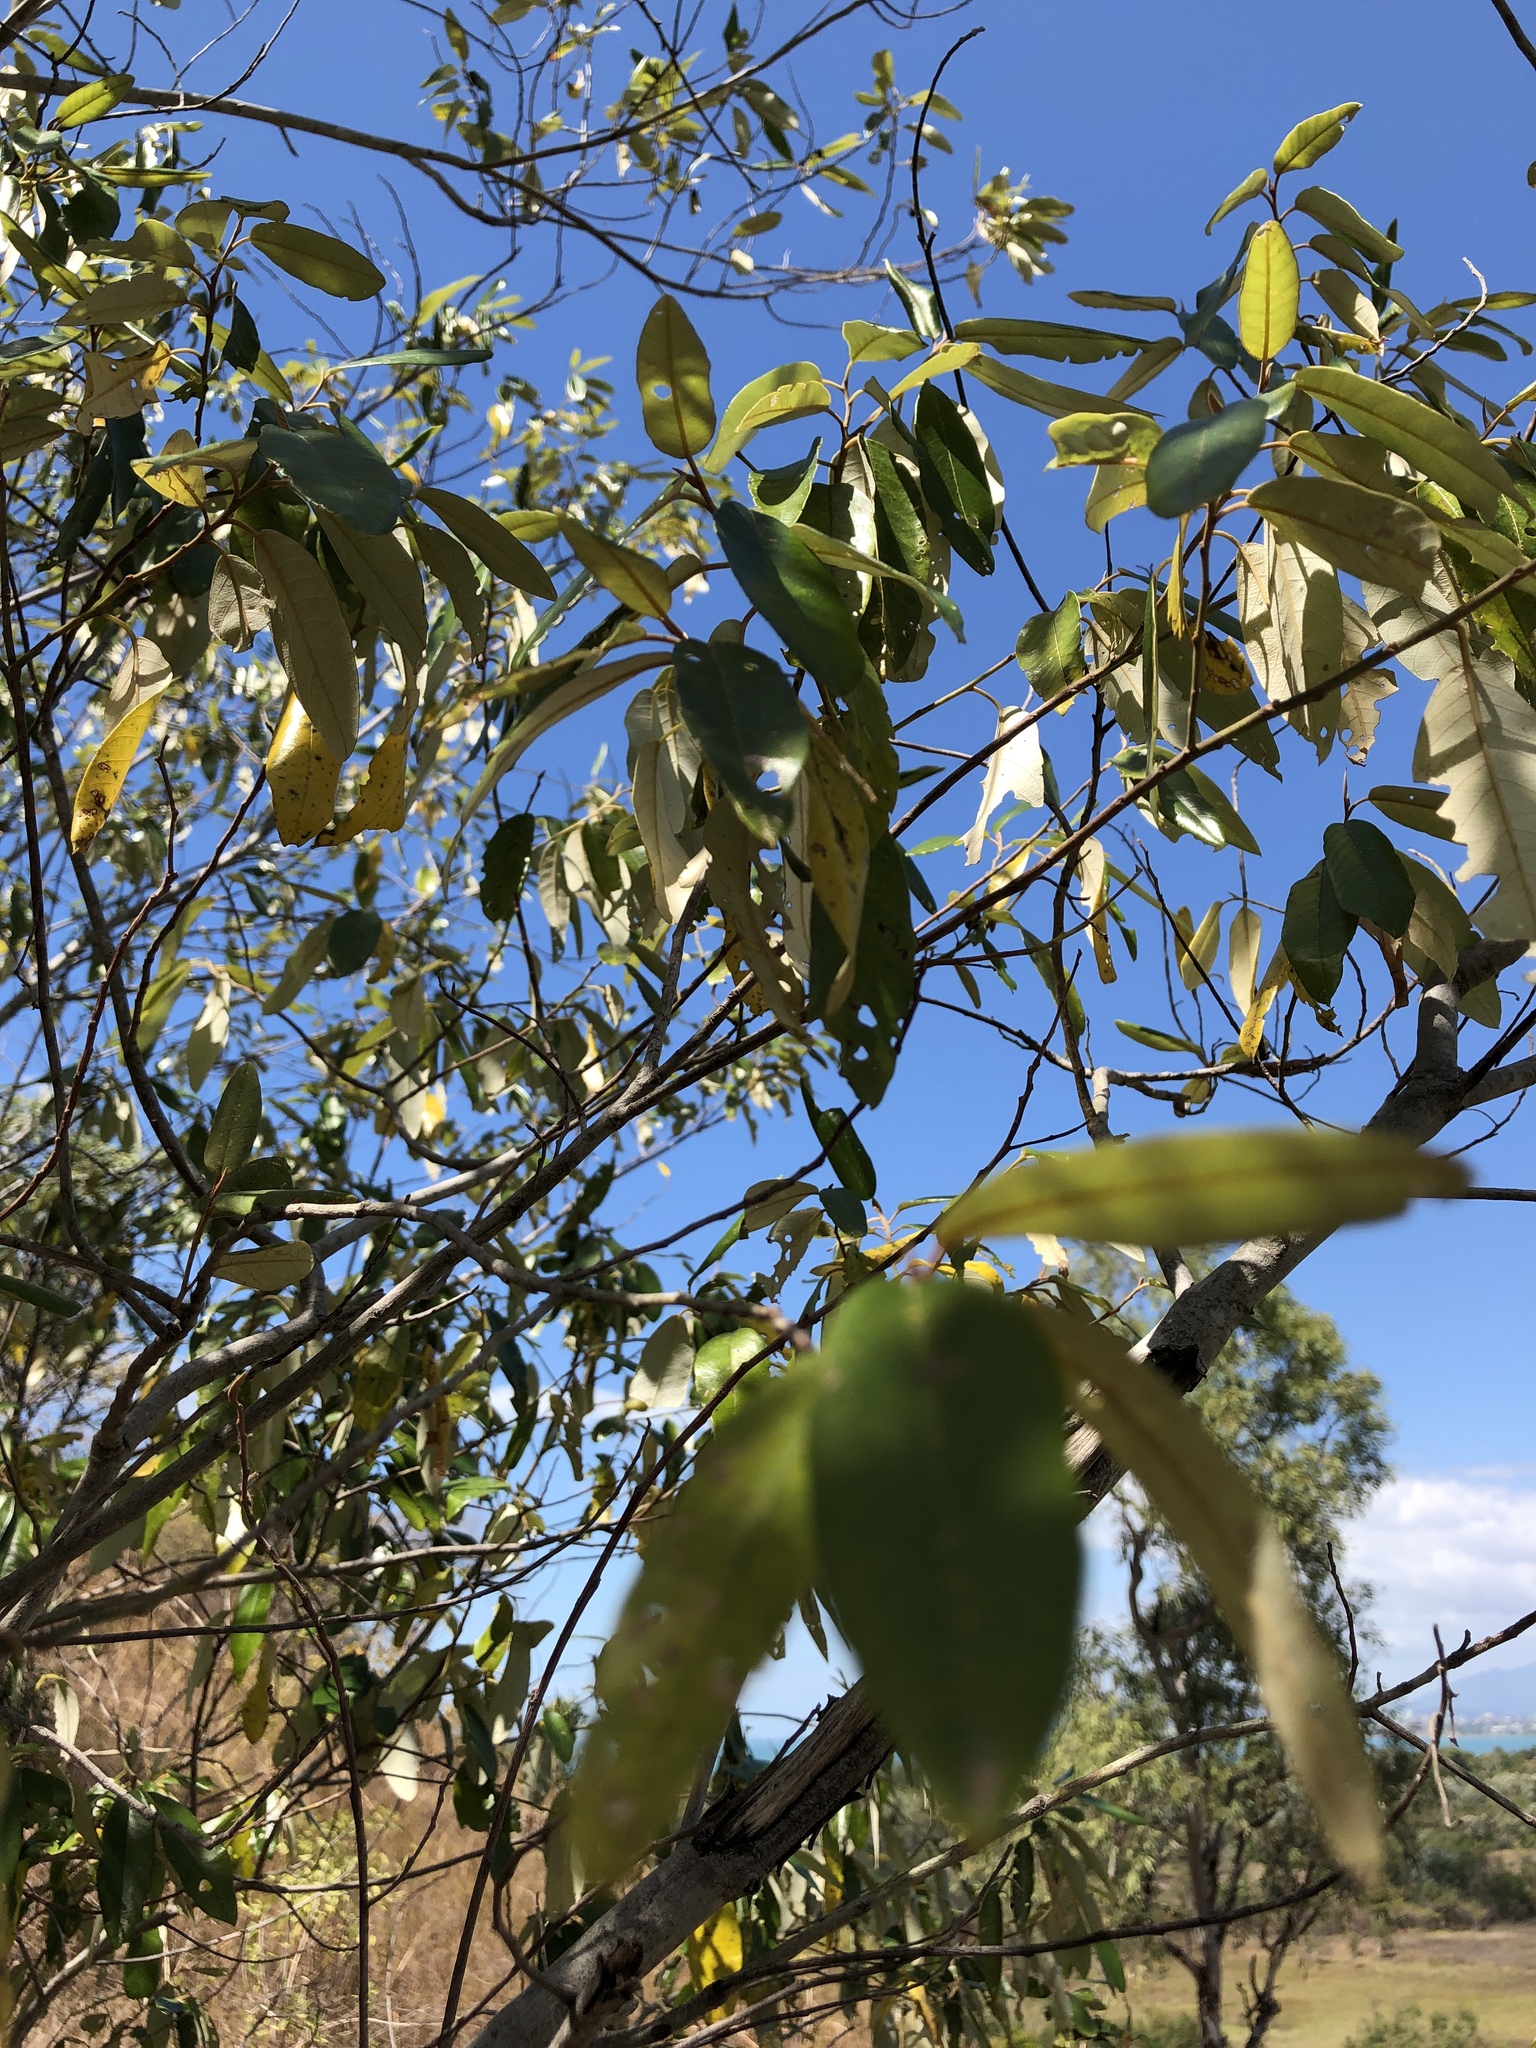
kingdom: Plantae
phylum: Tracheophyta
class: Magnoliopsida
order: Rosales
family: Rhamnaceae
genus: Alphitonia
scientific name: Alphitonia excelsa
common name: Red ash
